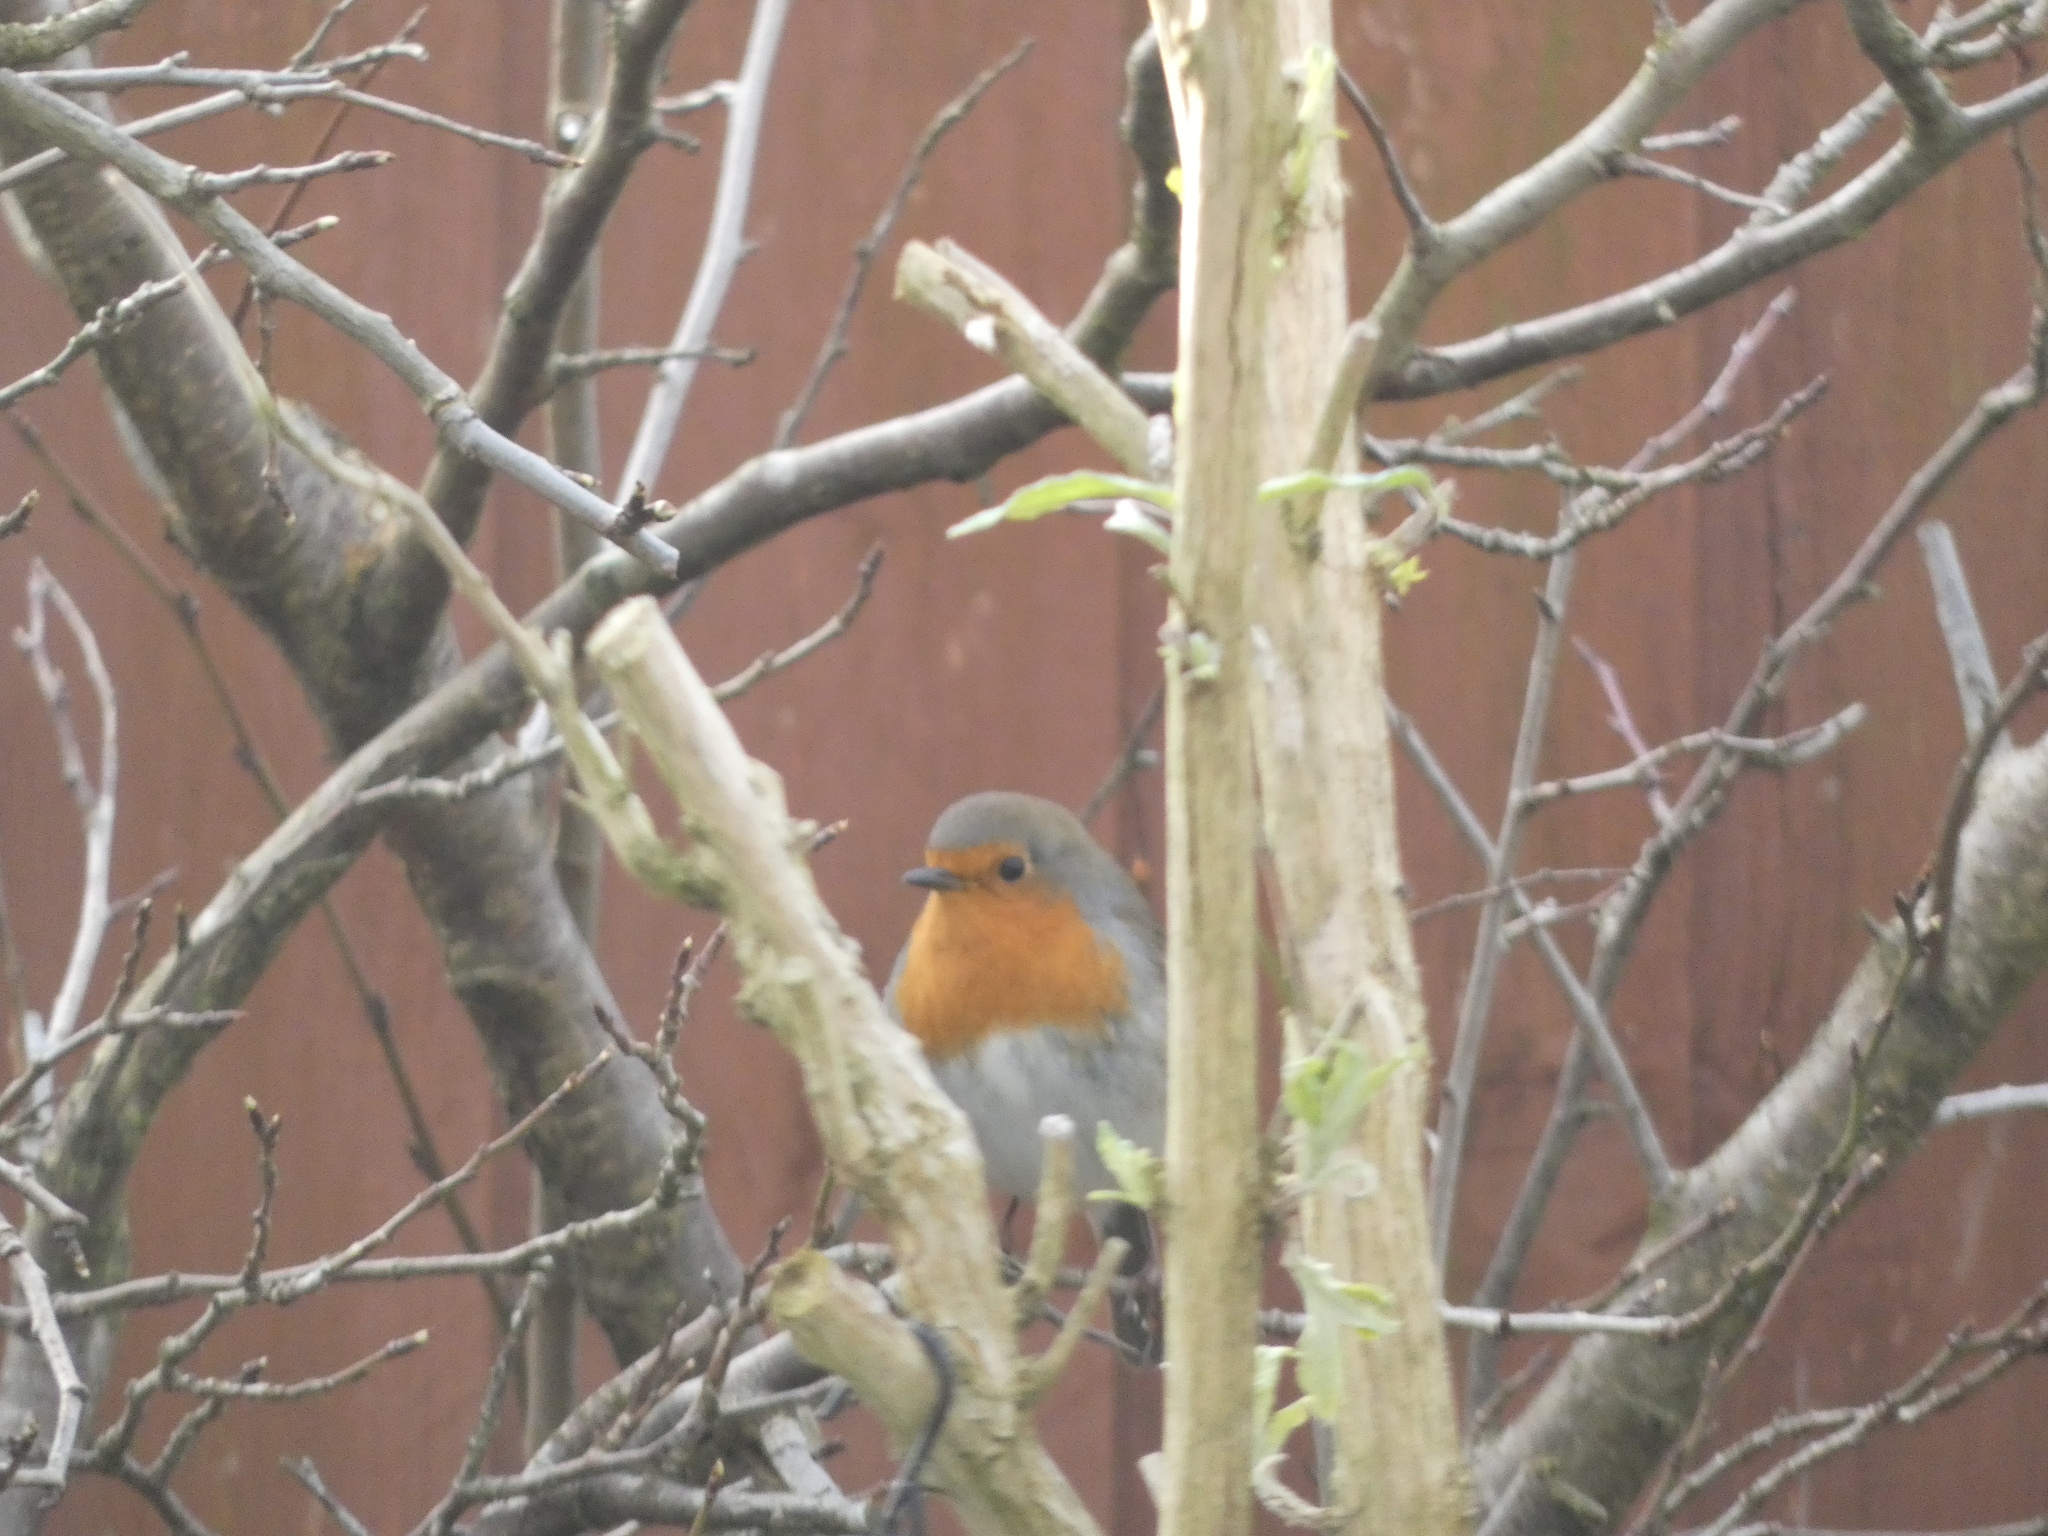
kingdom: Animalia
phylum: Chordata
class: Aves
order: Passeriformes
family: Muscicapidae
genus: Erithacus
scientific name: Erithacus rubecula
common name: European robin
